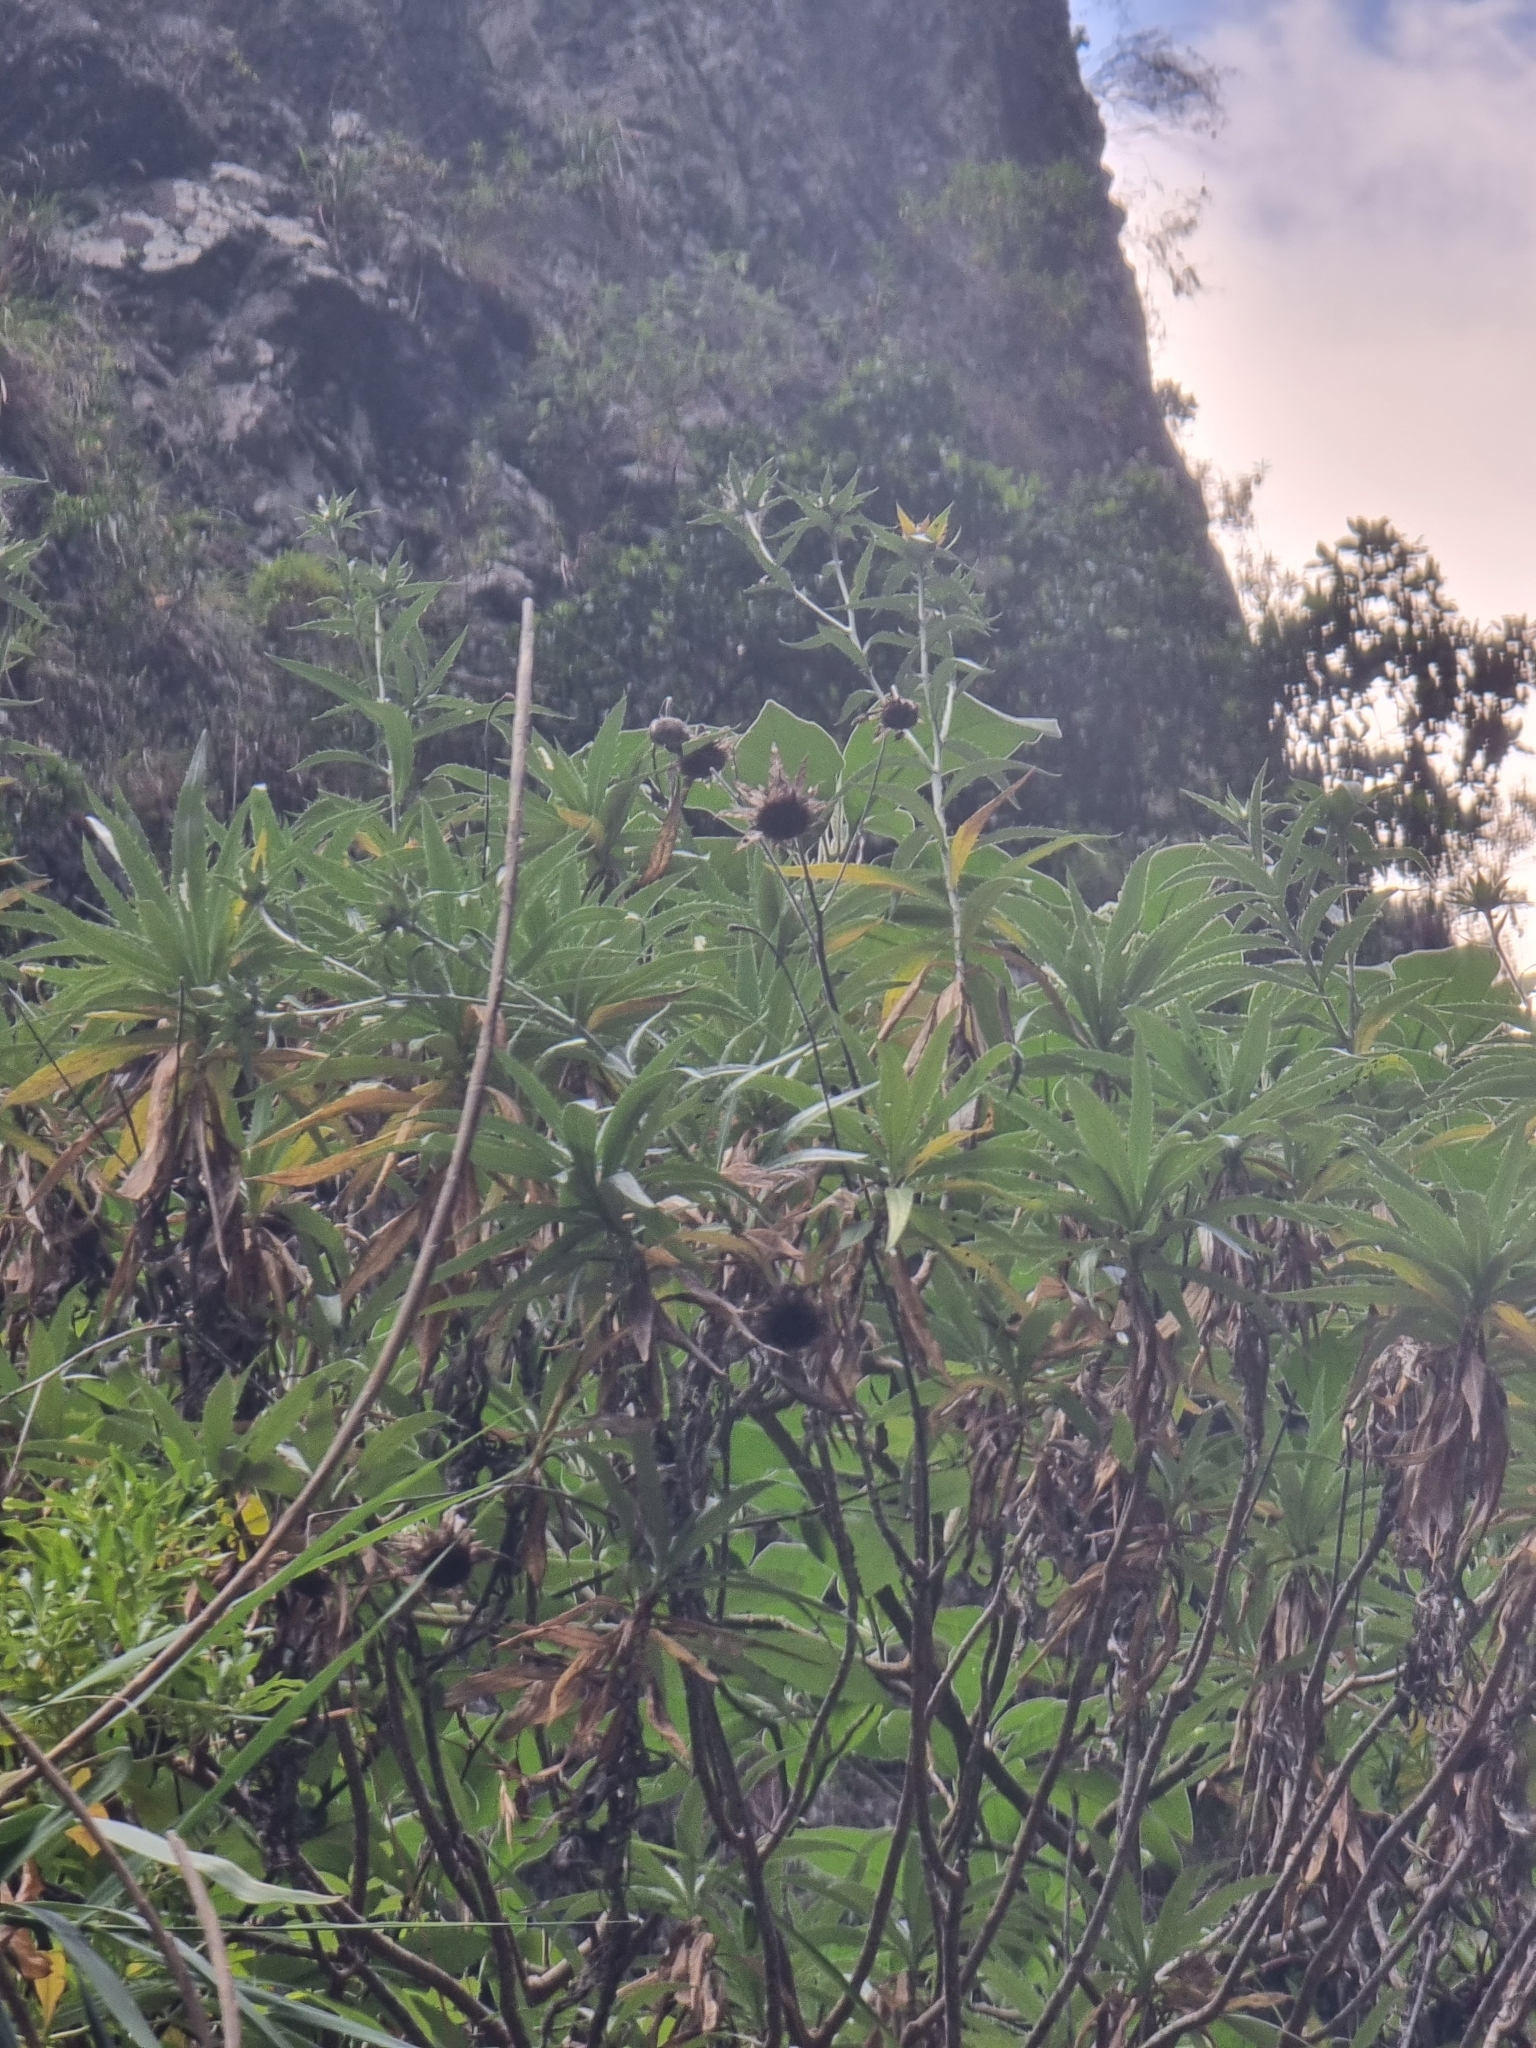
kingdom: Plantae
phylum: Tracheophyta
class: Magnoliopsida
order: Asterales
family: Asteraceae
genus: Carlina
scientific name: Carlina salicifolia
